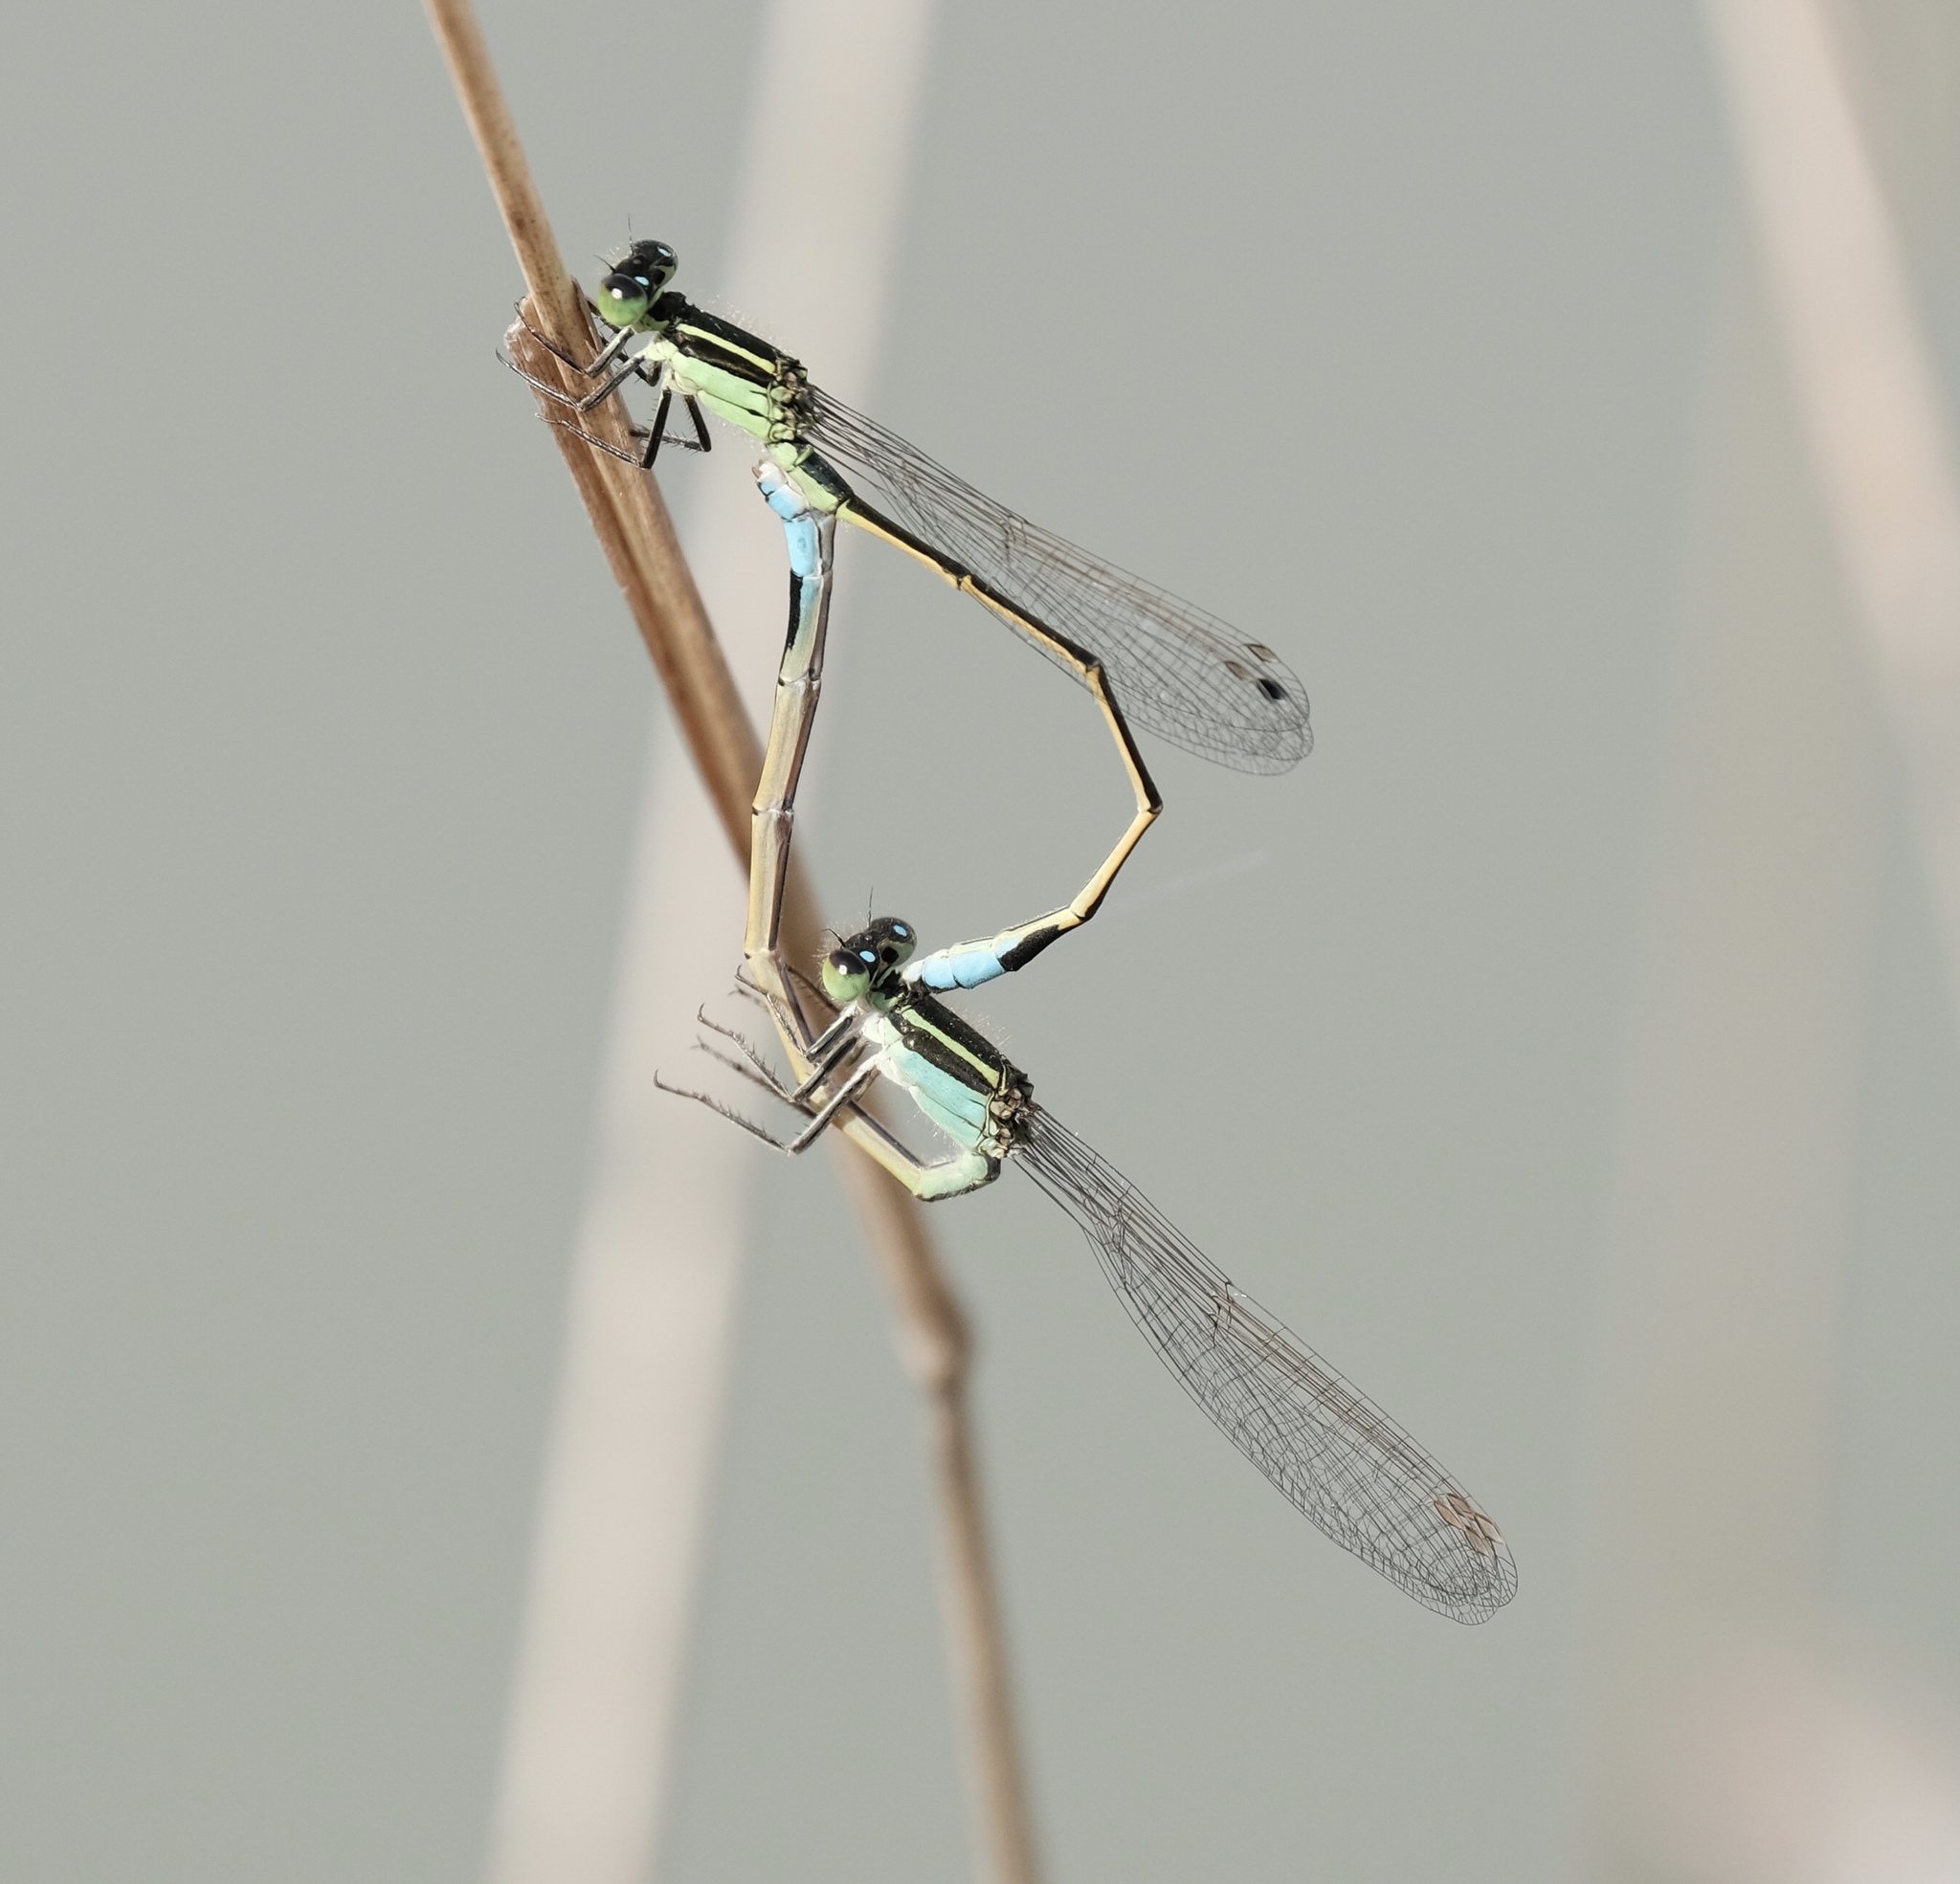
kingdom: Animalia
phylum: Arthropoda
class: Insecta
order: Odonata
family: Coenagrionidae
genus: Ischnura
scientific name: Ischnura ramburii
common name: Rambur's forktail
